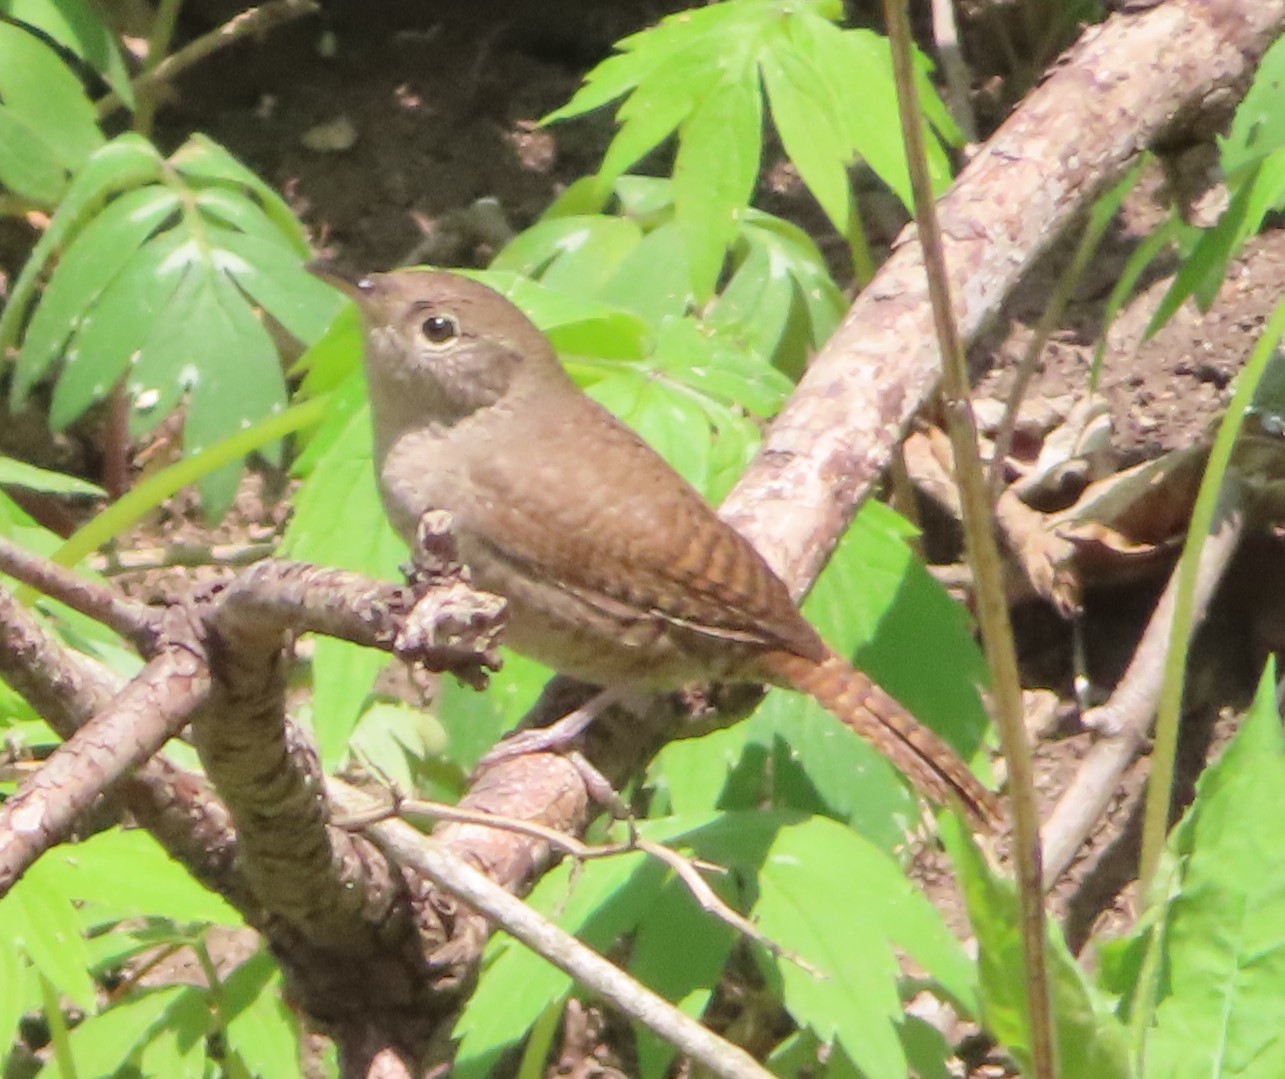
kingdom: Animalia
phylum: Chordata
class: Aves
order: Passeriformes
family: Troglodytidae
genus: Troglodytes
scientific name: Troglodytes aedon
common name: House wren
